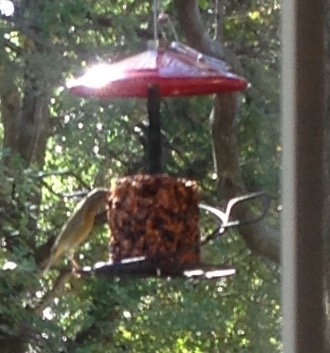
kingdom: Animalia
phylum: Chordata
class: Aves
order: Passeriformes
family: Parulidae
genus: Leiothlypis
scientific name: Leiothlypis celata
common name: Orange-crowned warbler
